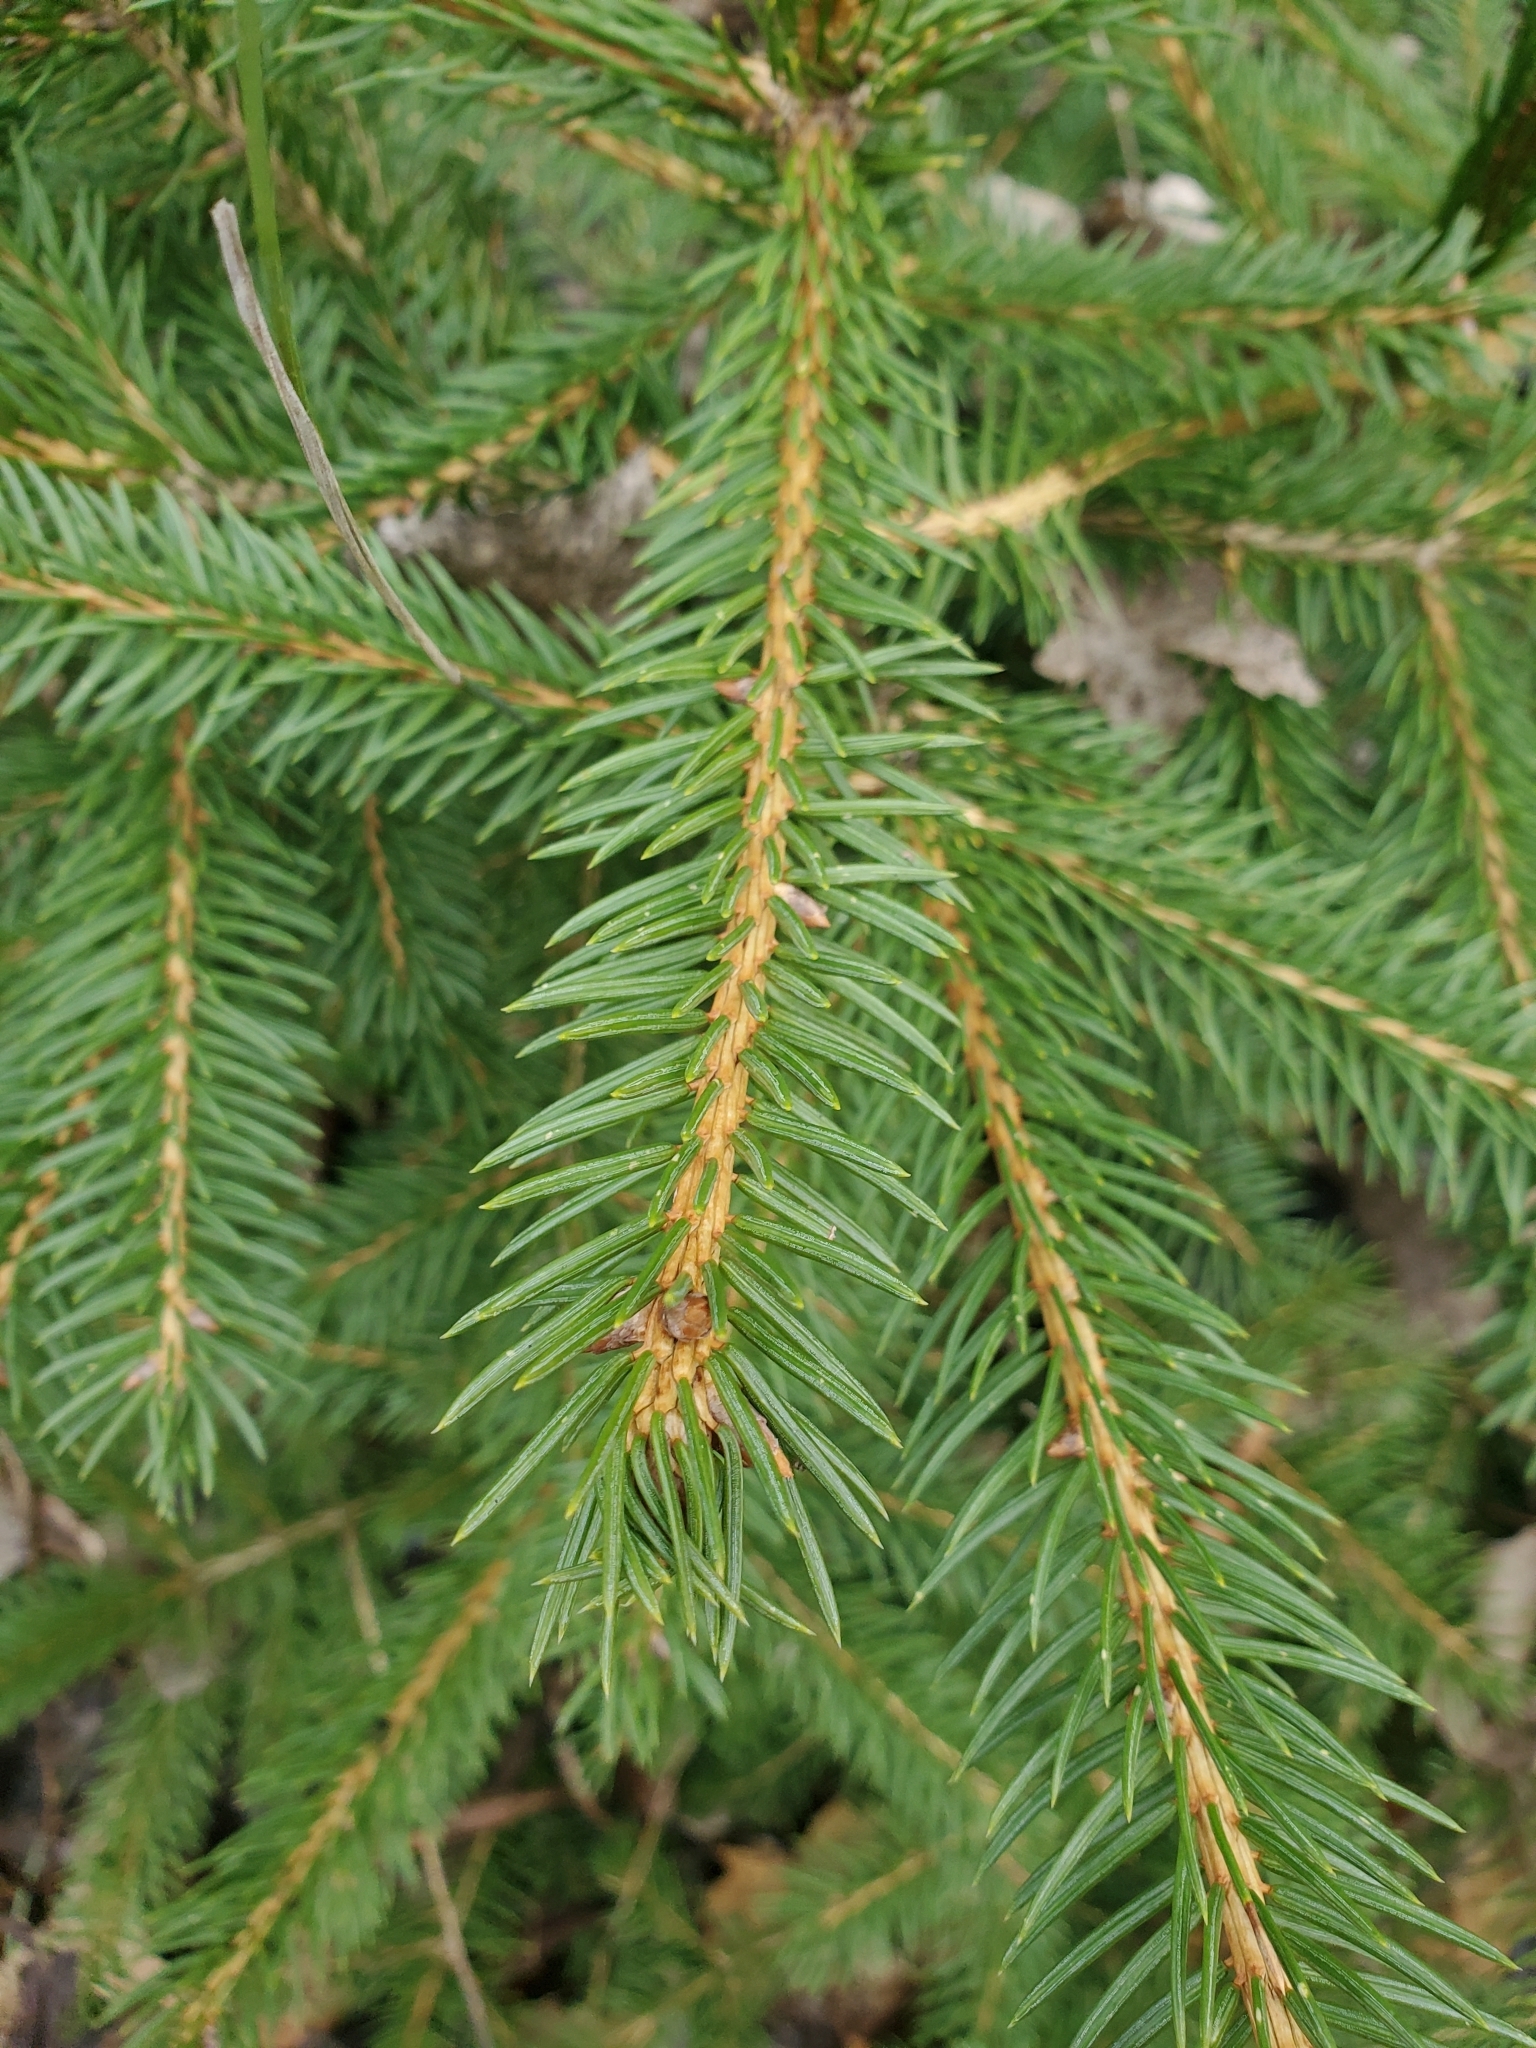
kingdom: Plantae
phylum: Tracheophyta
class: Pinopsida
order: Pinales
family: Pinaceae
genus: Picea
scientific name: Picea abies
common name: Norway spruce
